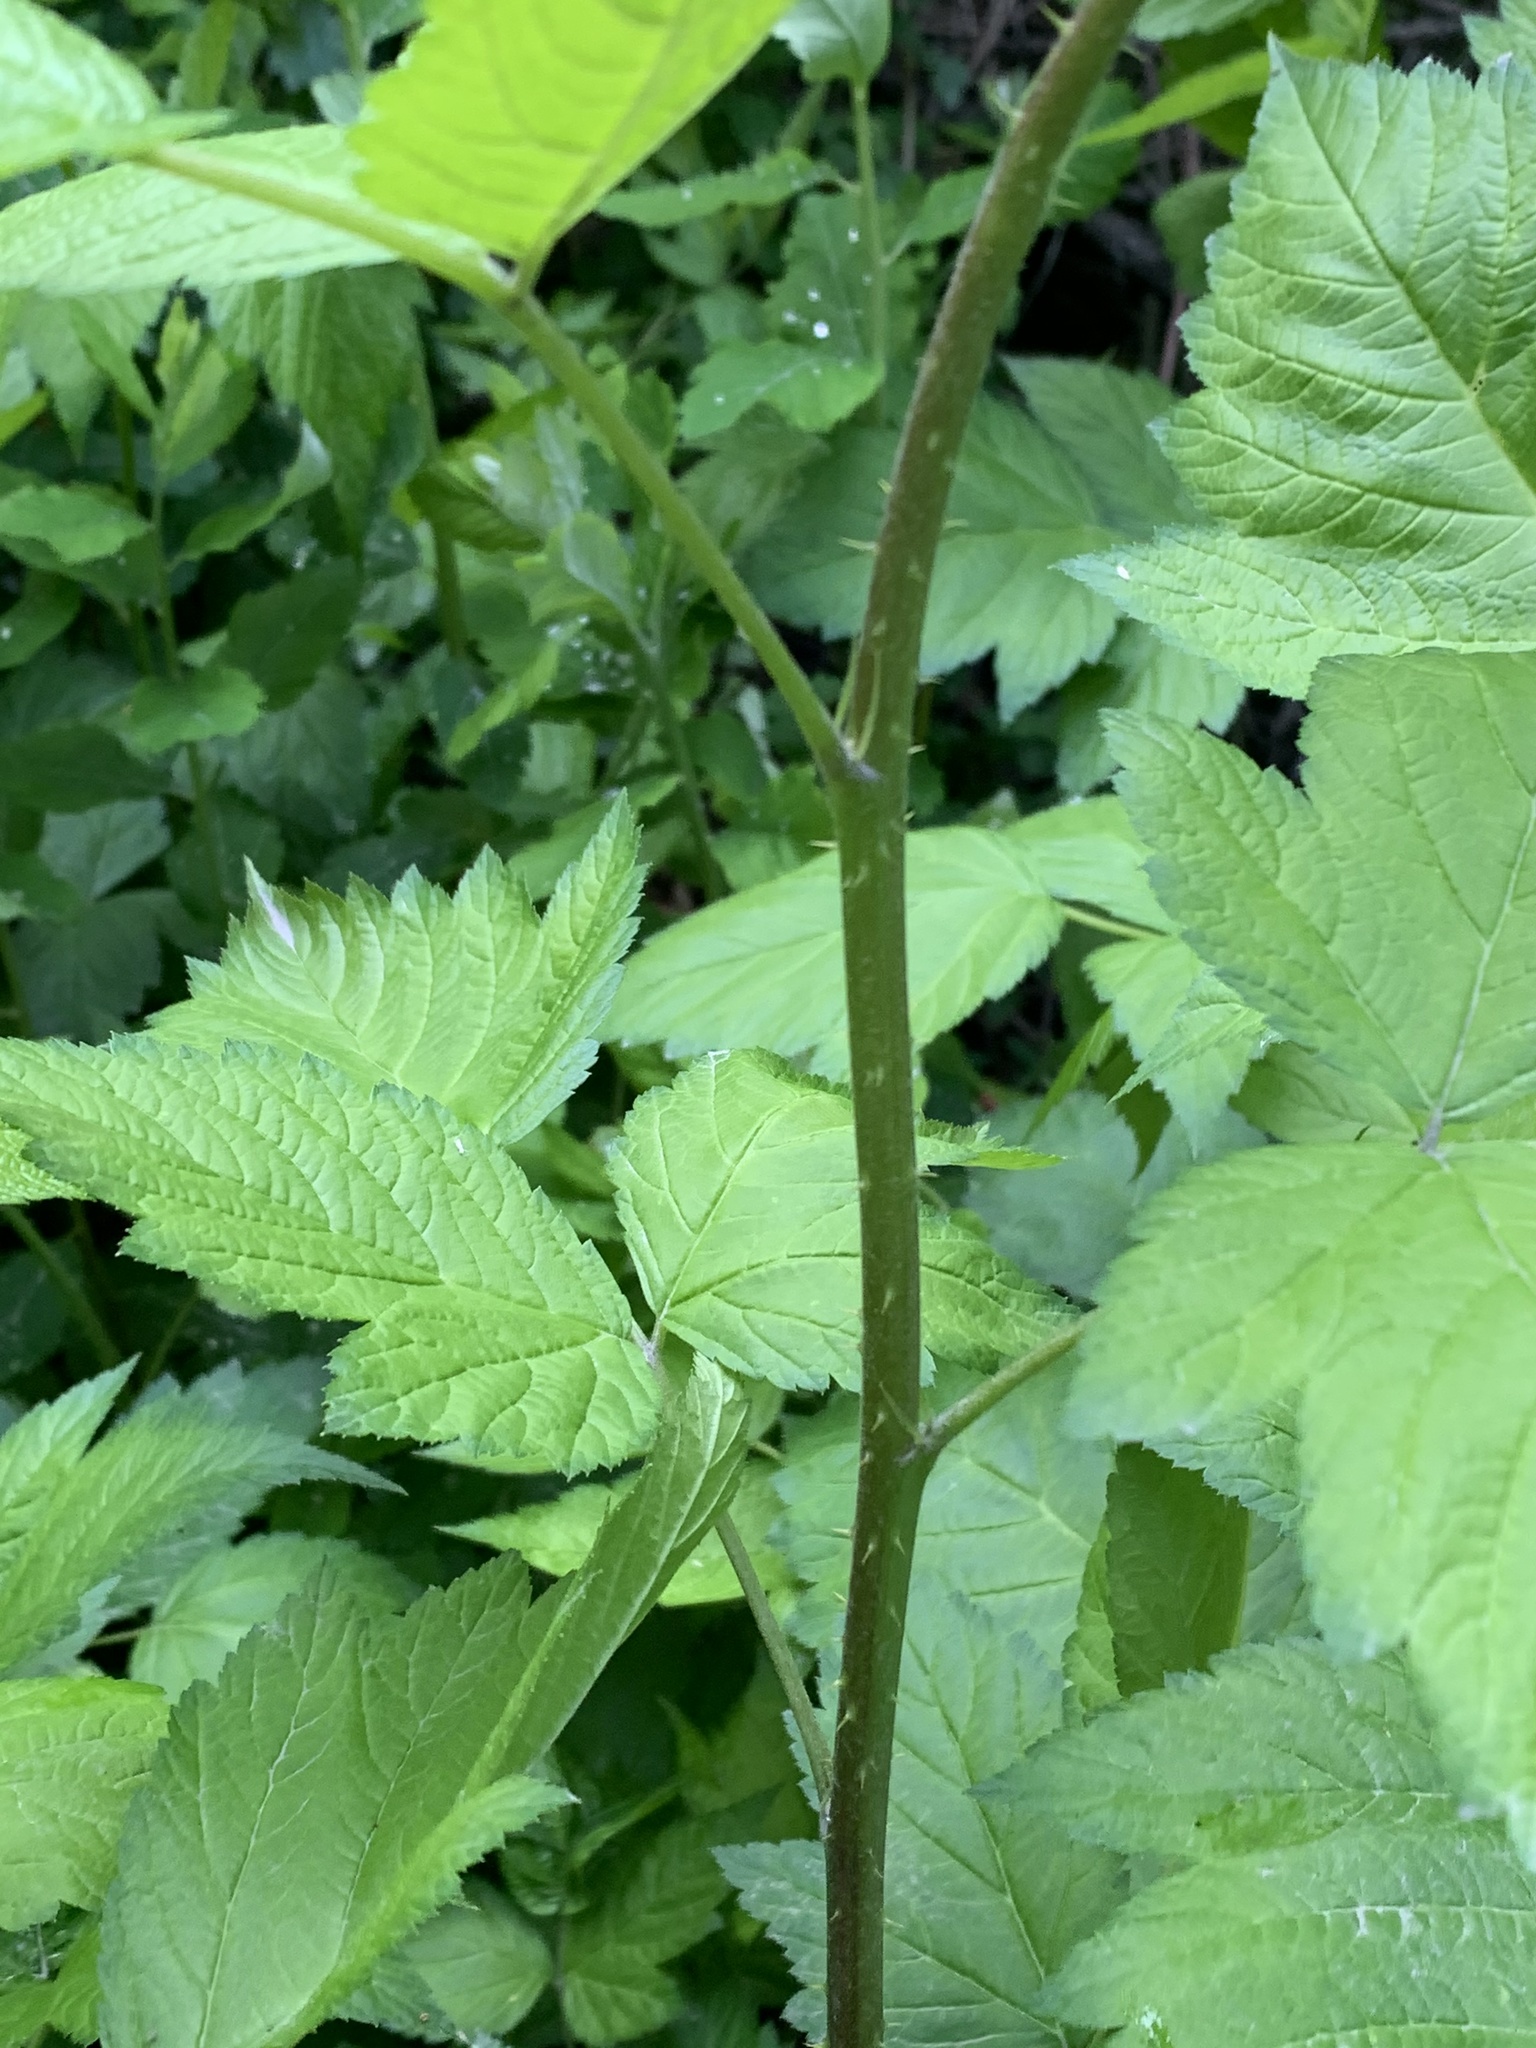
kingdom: Plantae
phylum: Tracheophyta
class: Magnoliopsida
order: Rosales
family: Rosaceae
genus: Rubus
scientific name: Rubus spectabilis
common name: Salmonberry
